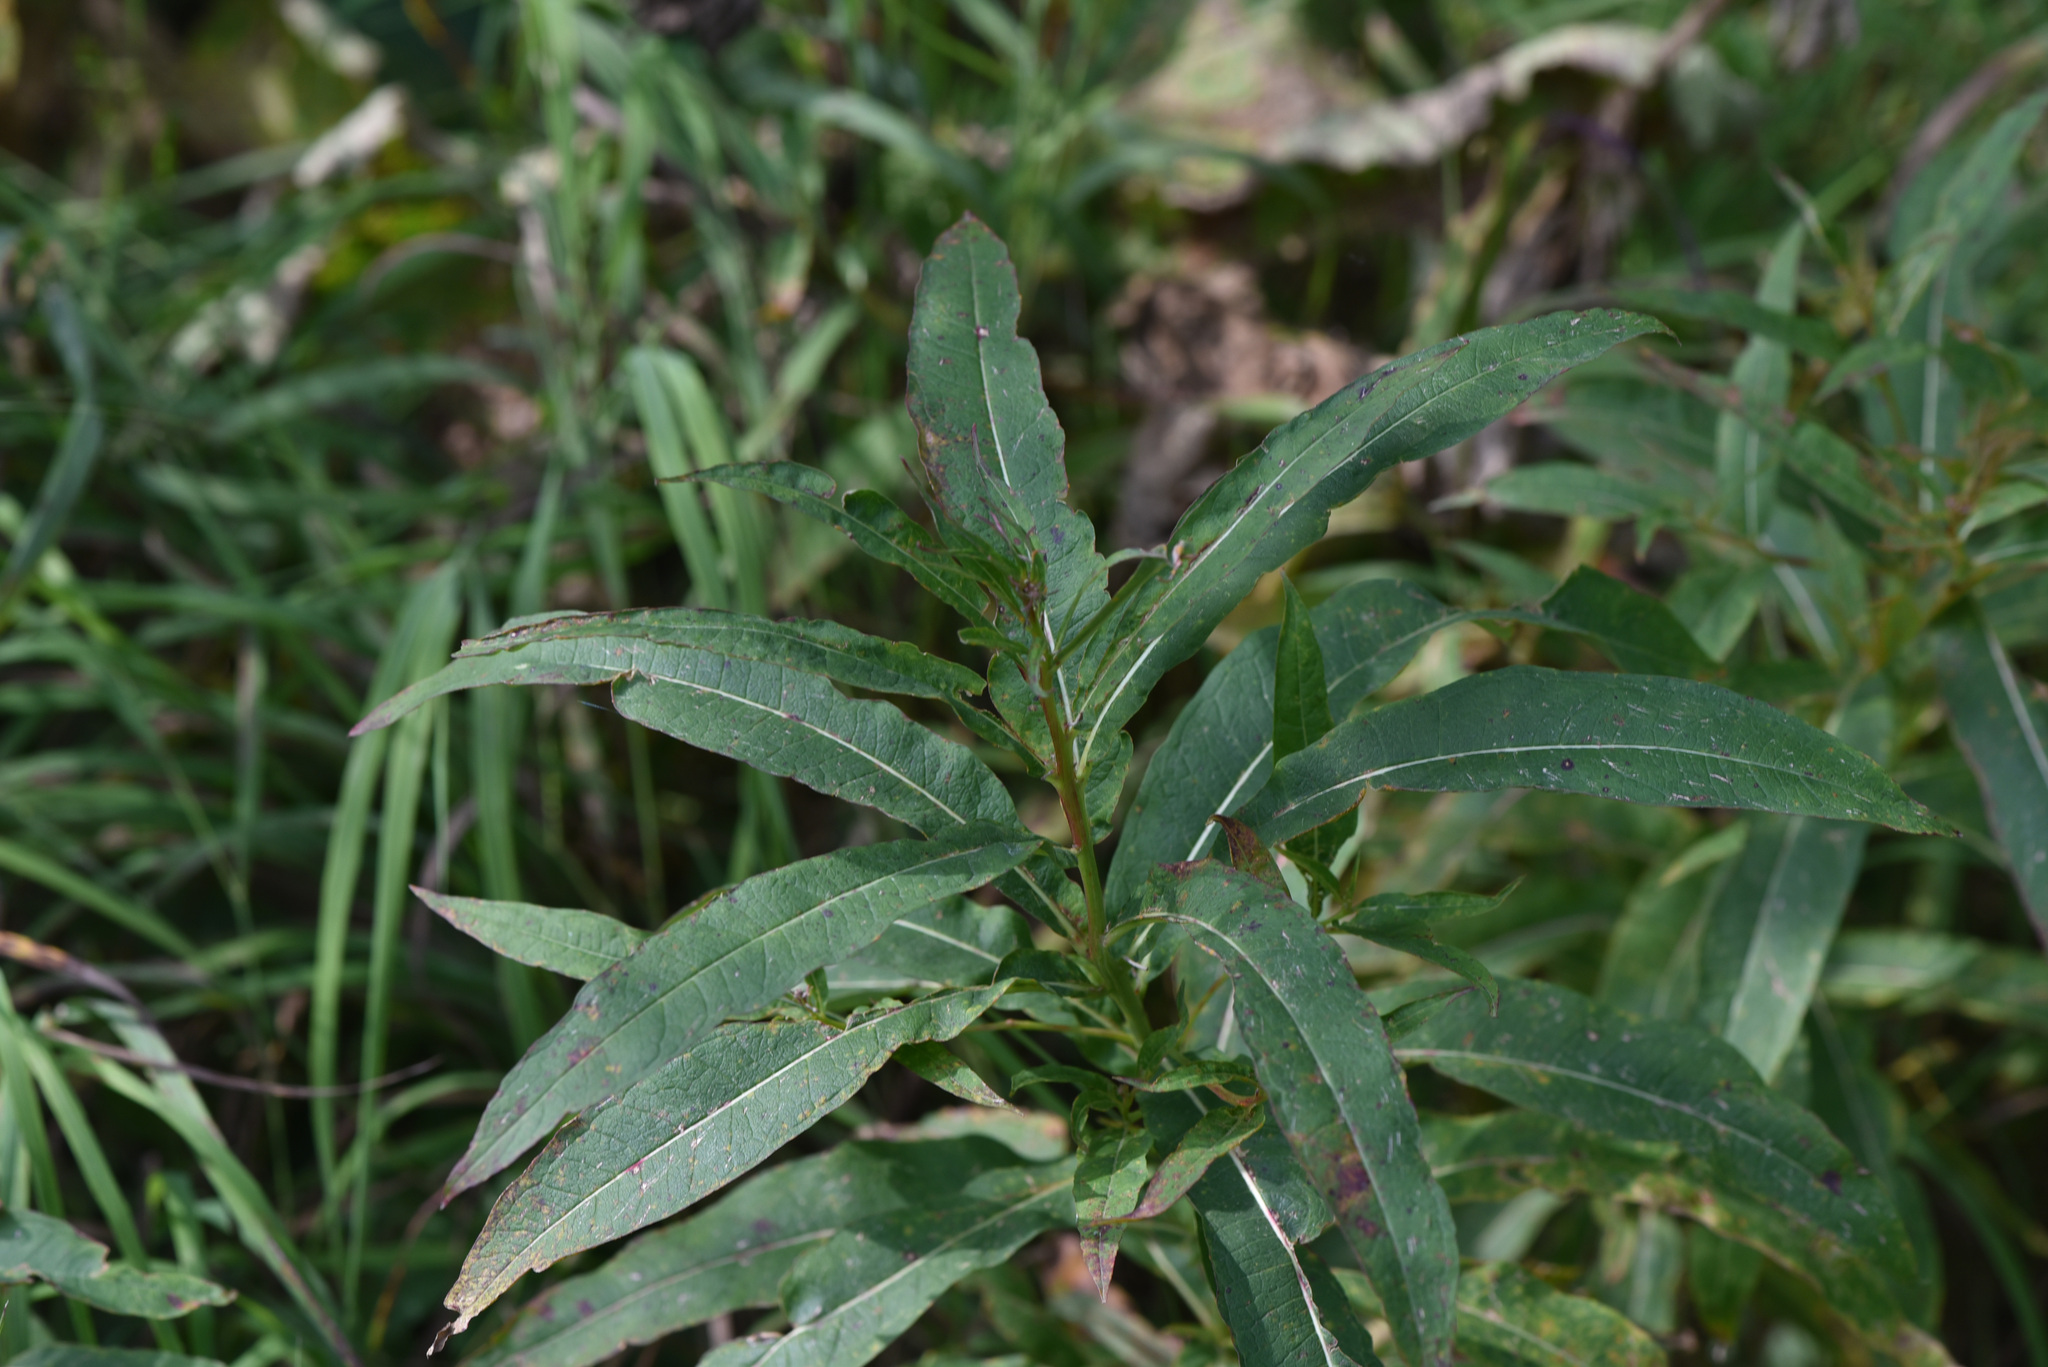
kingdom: Plantae
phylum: Tracheophyta
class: Magnoliopsida
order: Myrtales
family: Onagraceae
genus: Chamaenerion
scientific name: Chamaenerion angustifolium
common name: Fireweed
